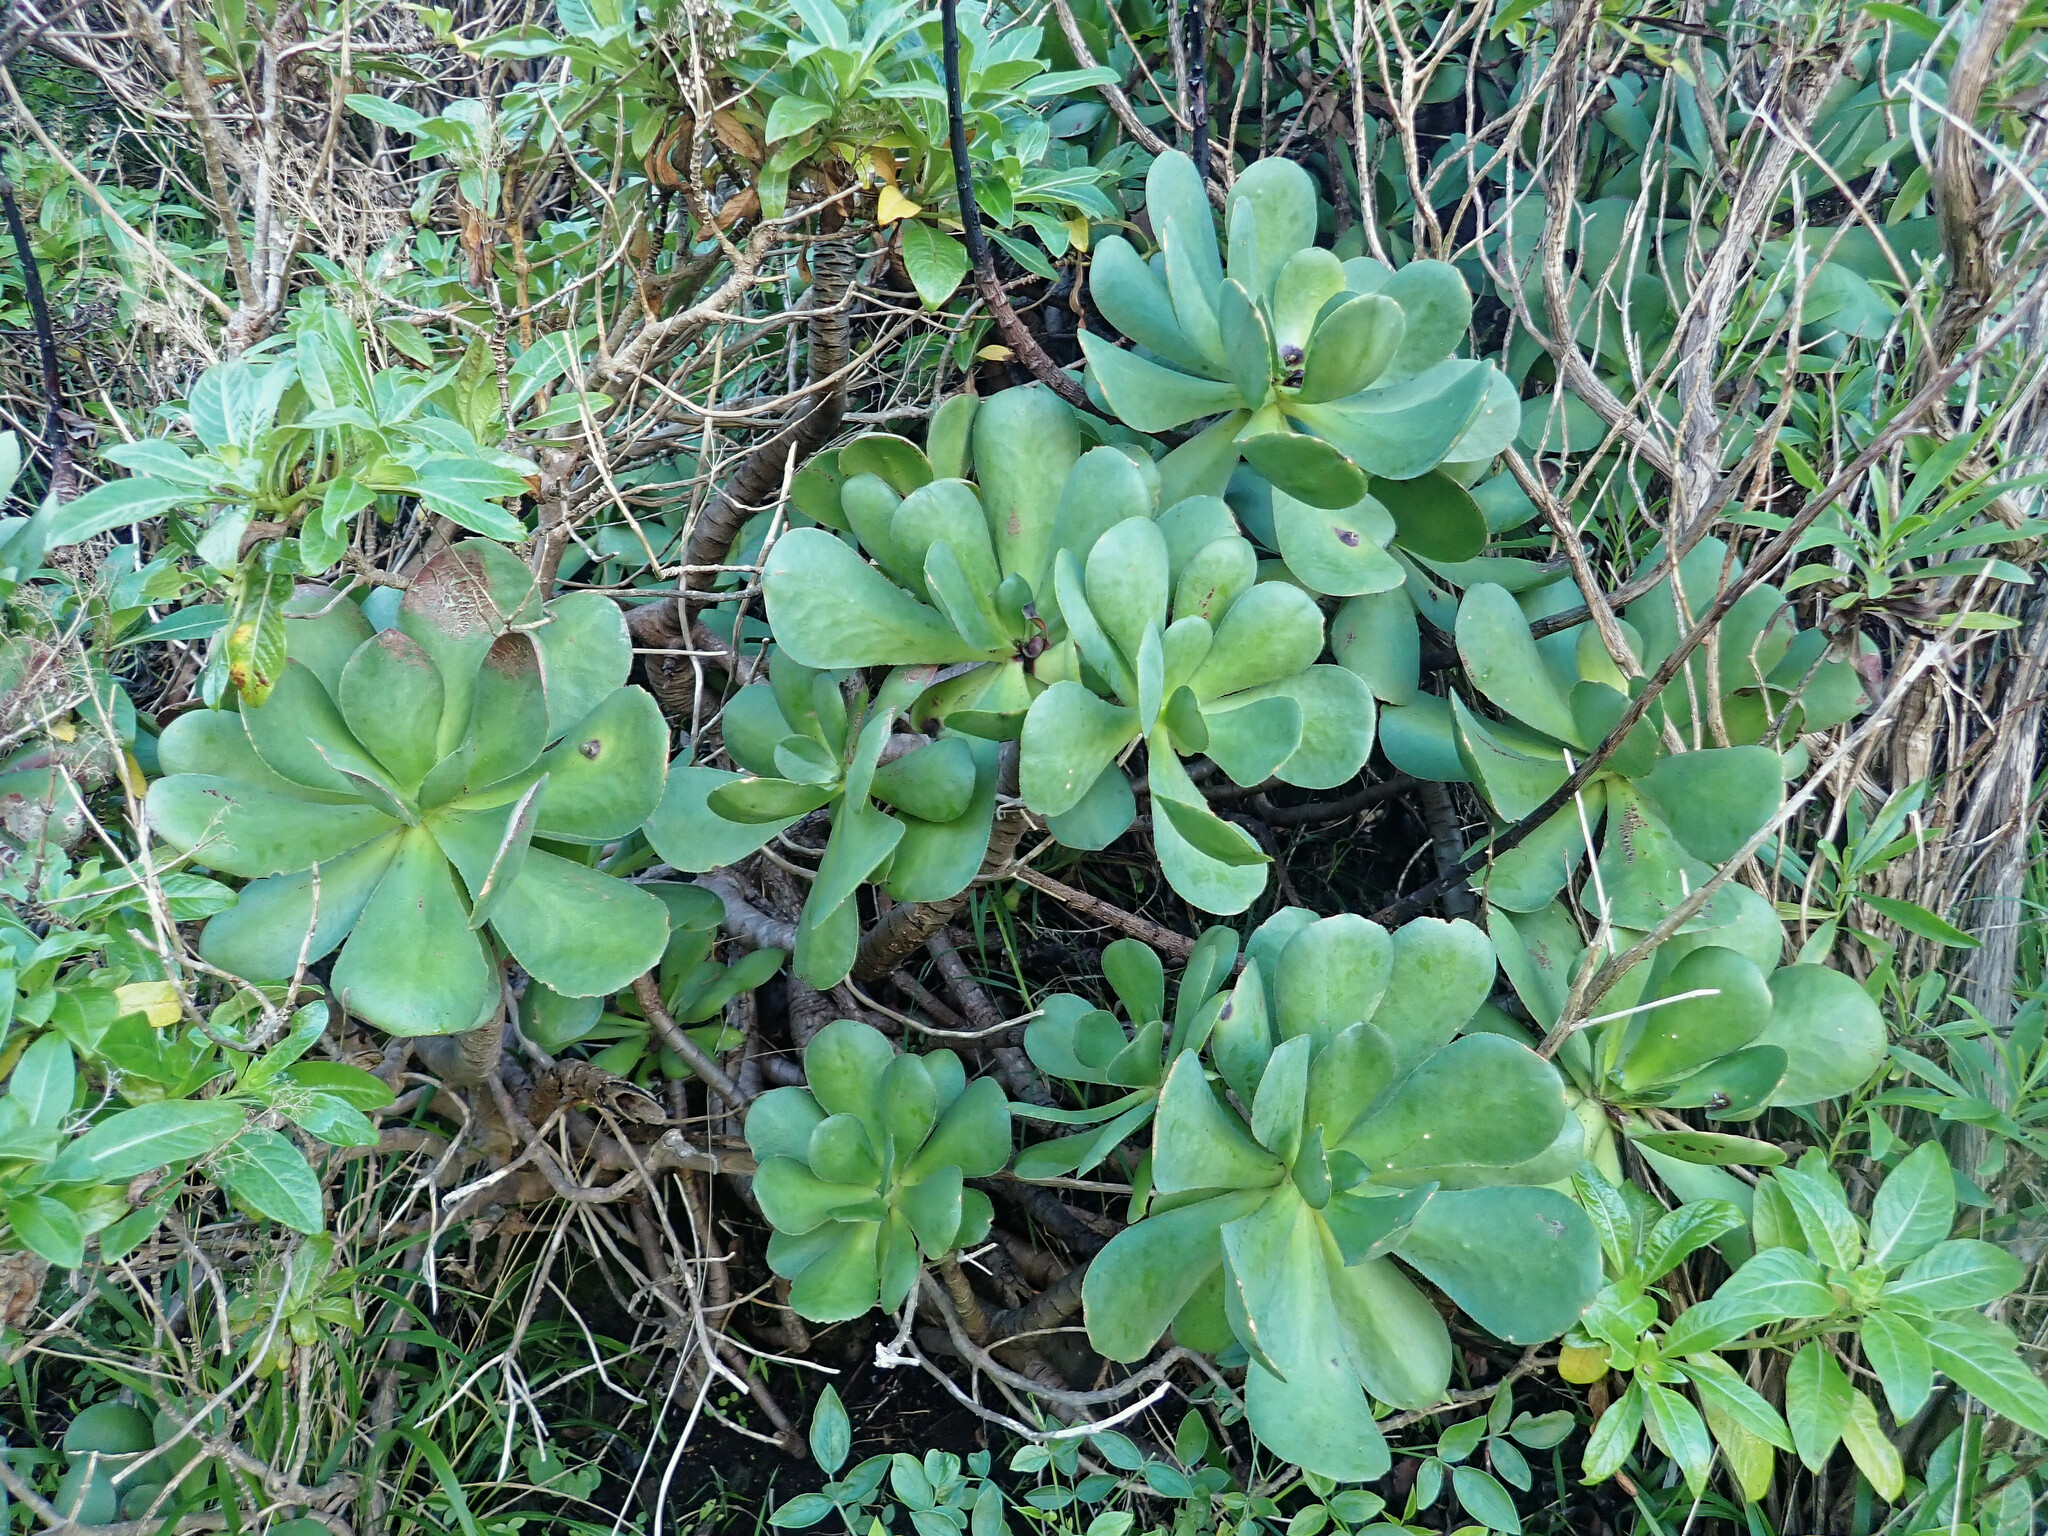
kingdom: Plantae
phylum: Tracheophyta
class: Magnoliopsida
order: Saxifragales
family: Crassulaceae
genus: Aeonium
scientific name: Aeonium glutinosum
